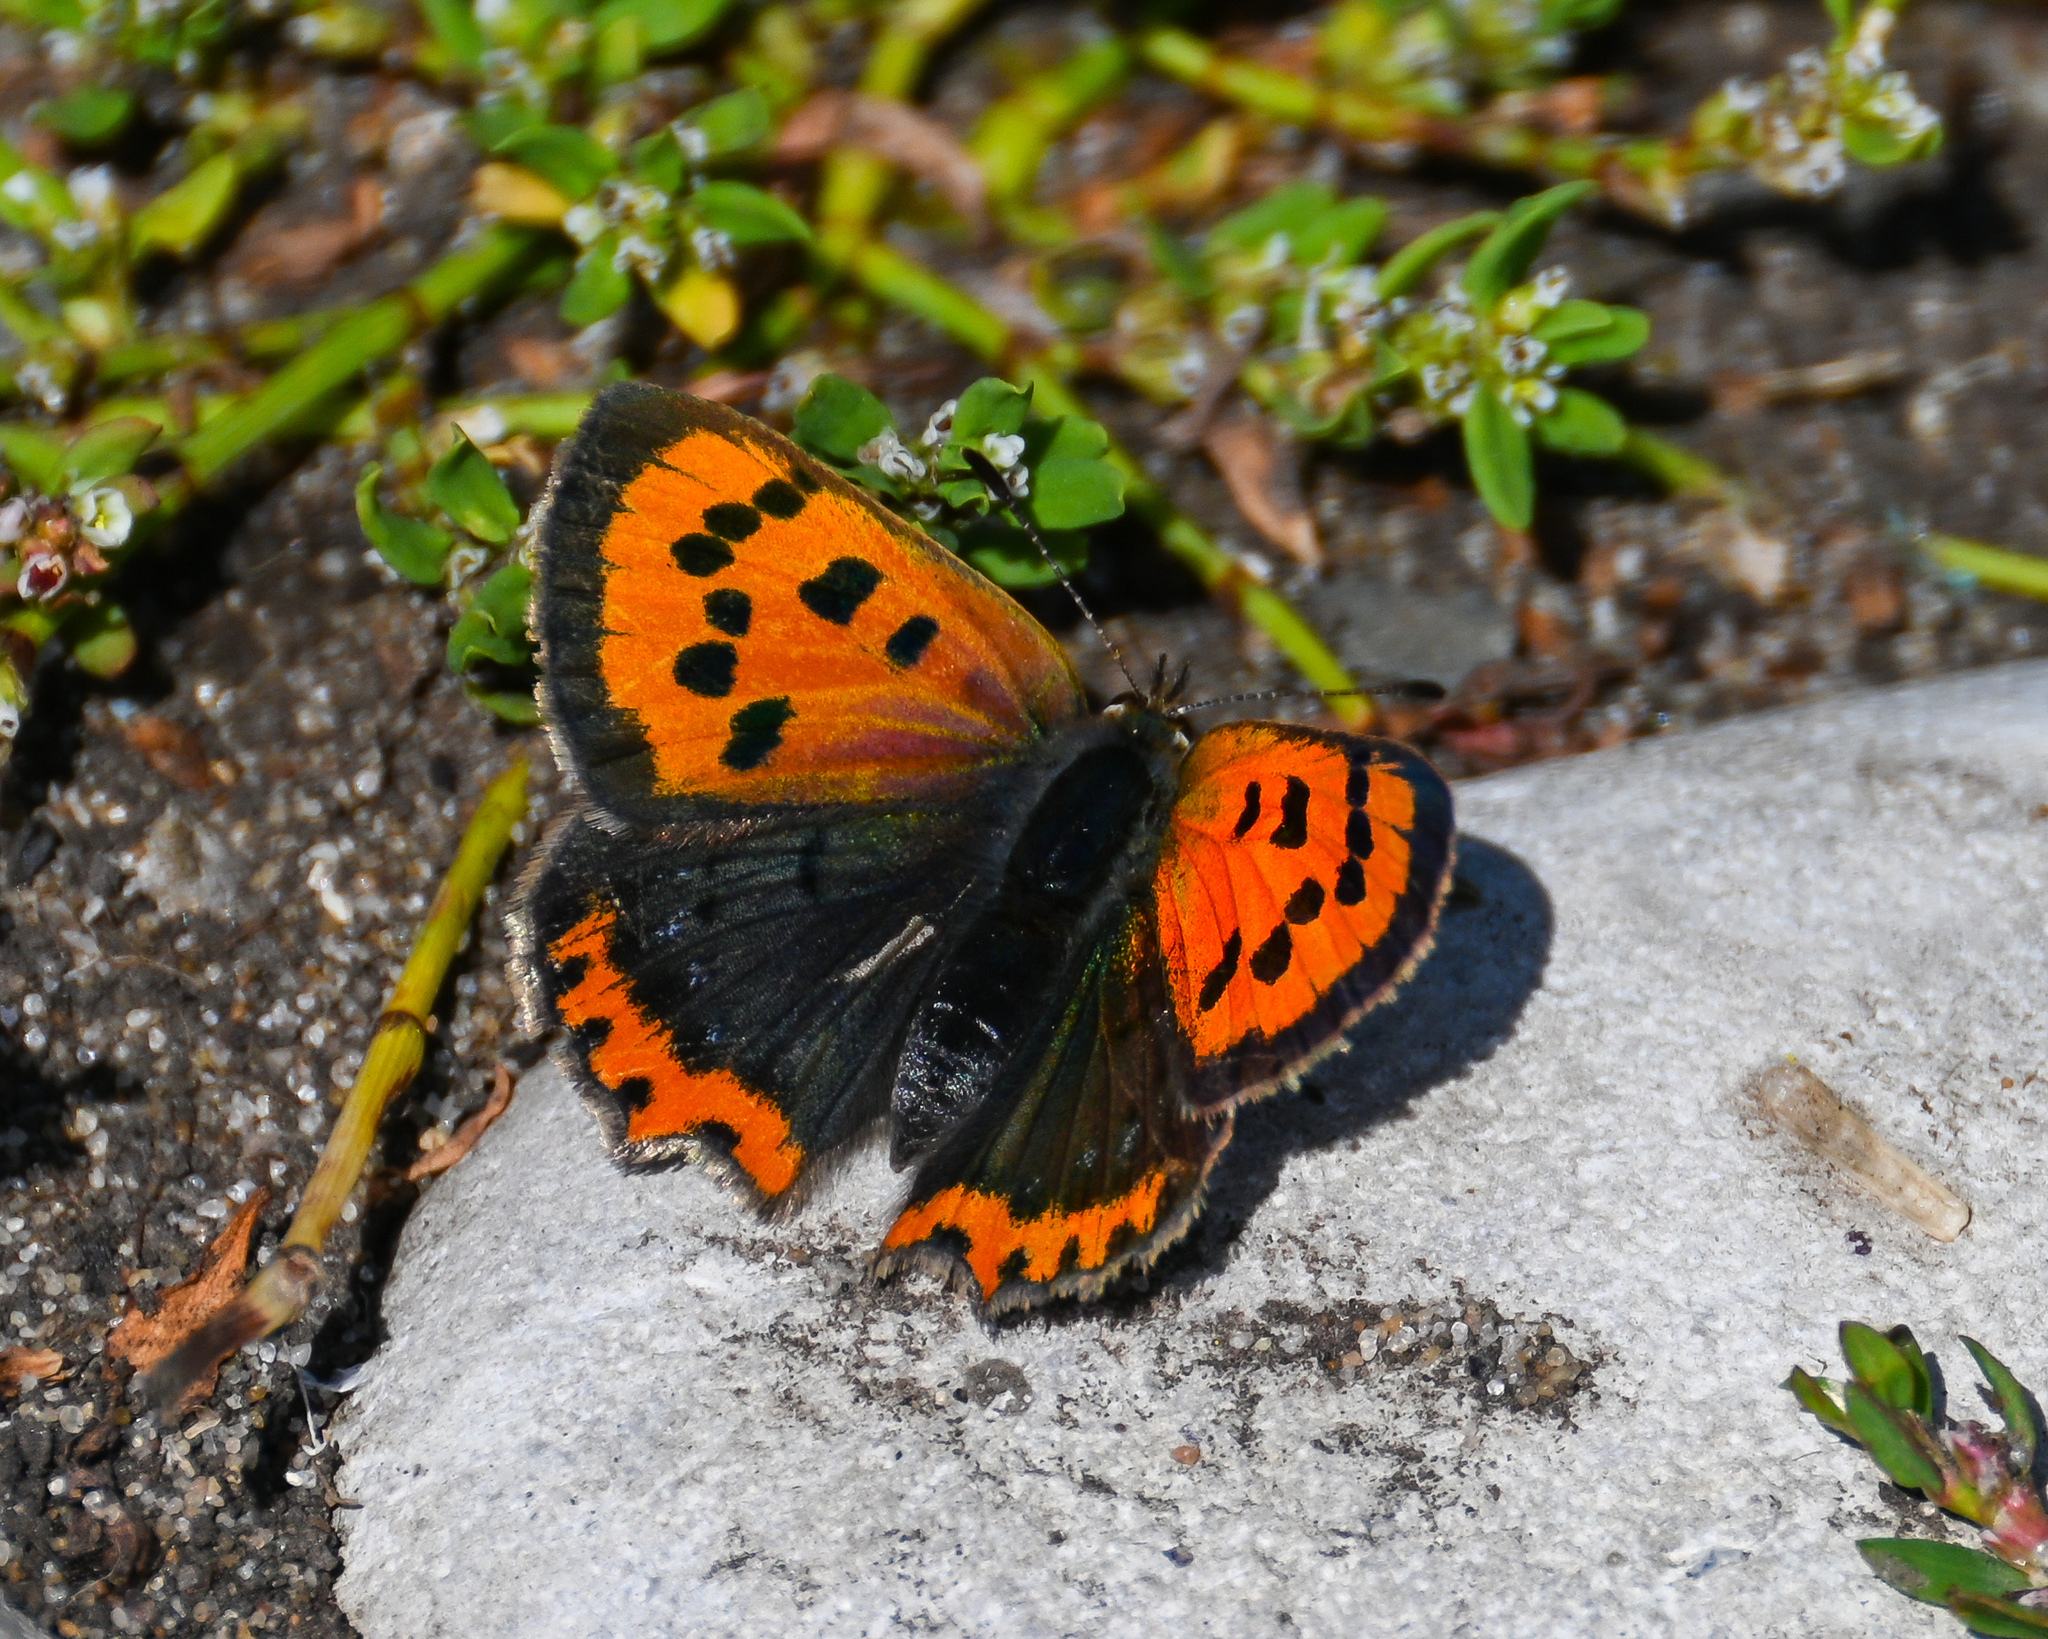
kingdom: Animalia
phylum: Arthropoda
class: Insecta
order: Lepidoptera
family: Lycaenidae
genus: Lycaena
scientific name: Lycaena phlaeas
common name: Small copper
